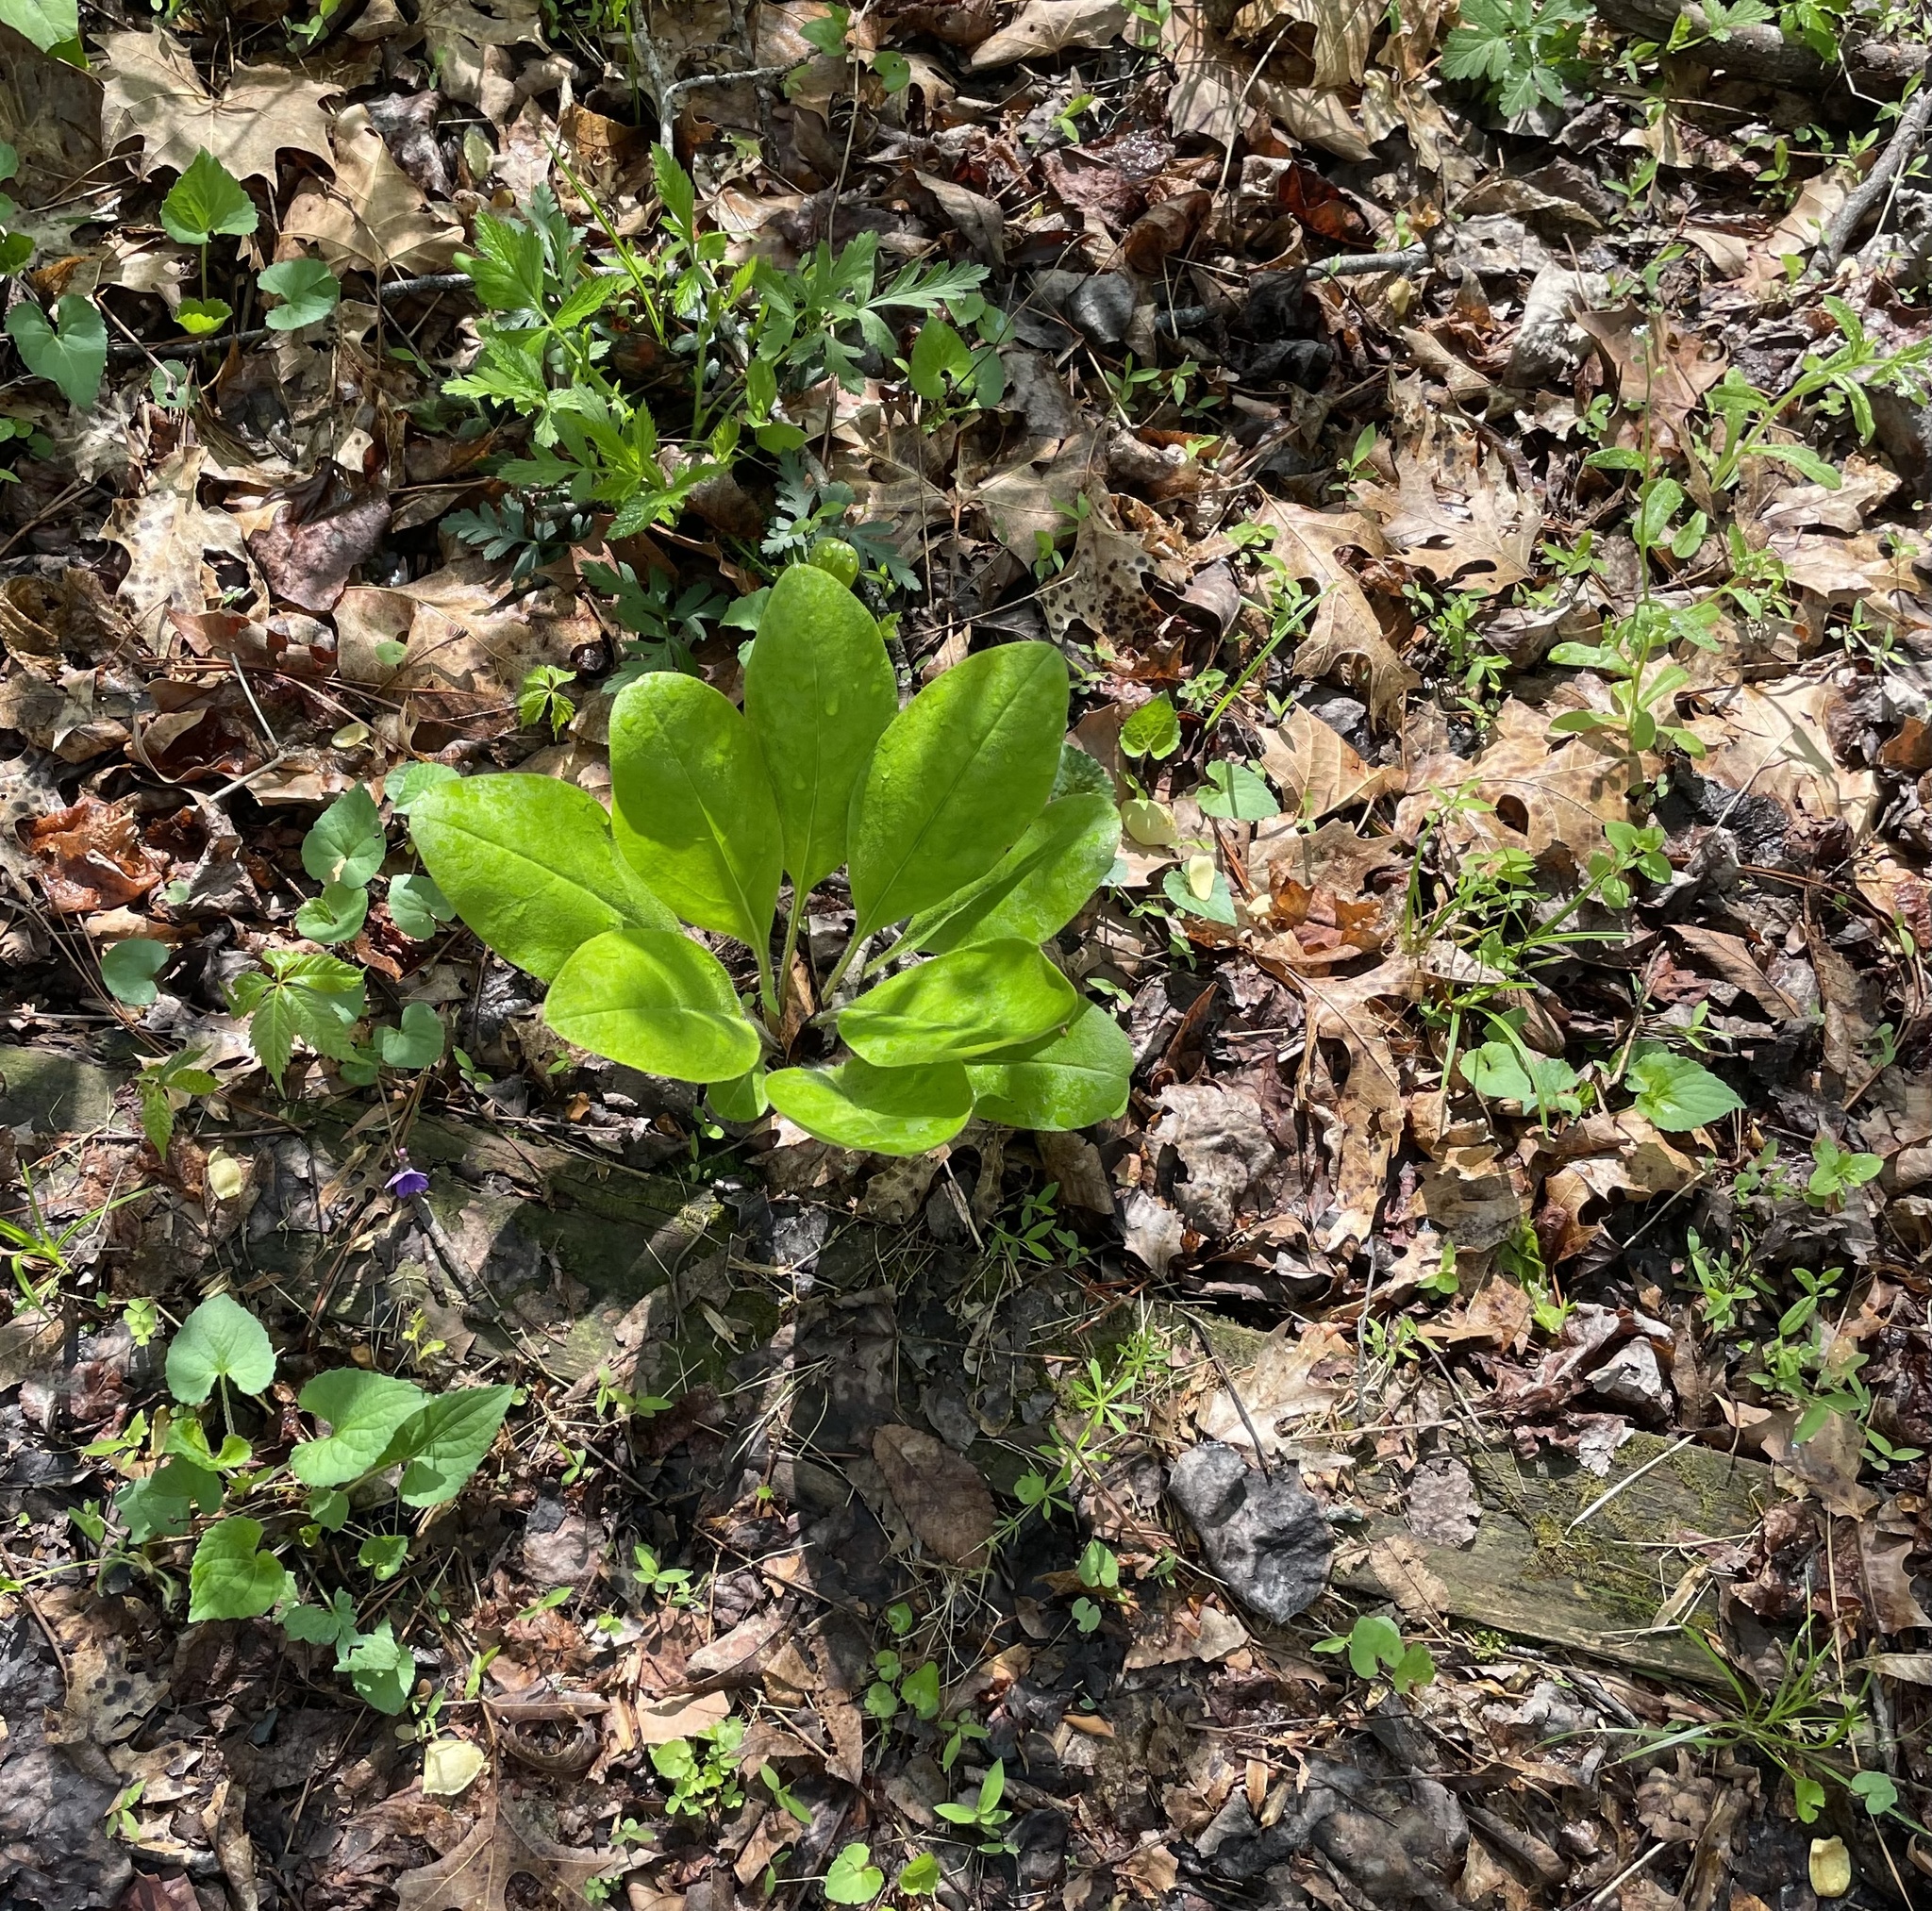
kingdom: Plantae
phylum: Tracheophyta
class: Magnoliopsida
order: Boraginales
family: Boraginaceae
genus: Andersonglossum
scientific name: Andersonglossum virginianum
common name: Wild comfrey
